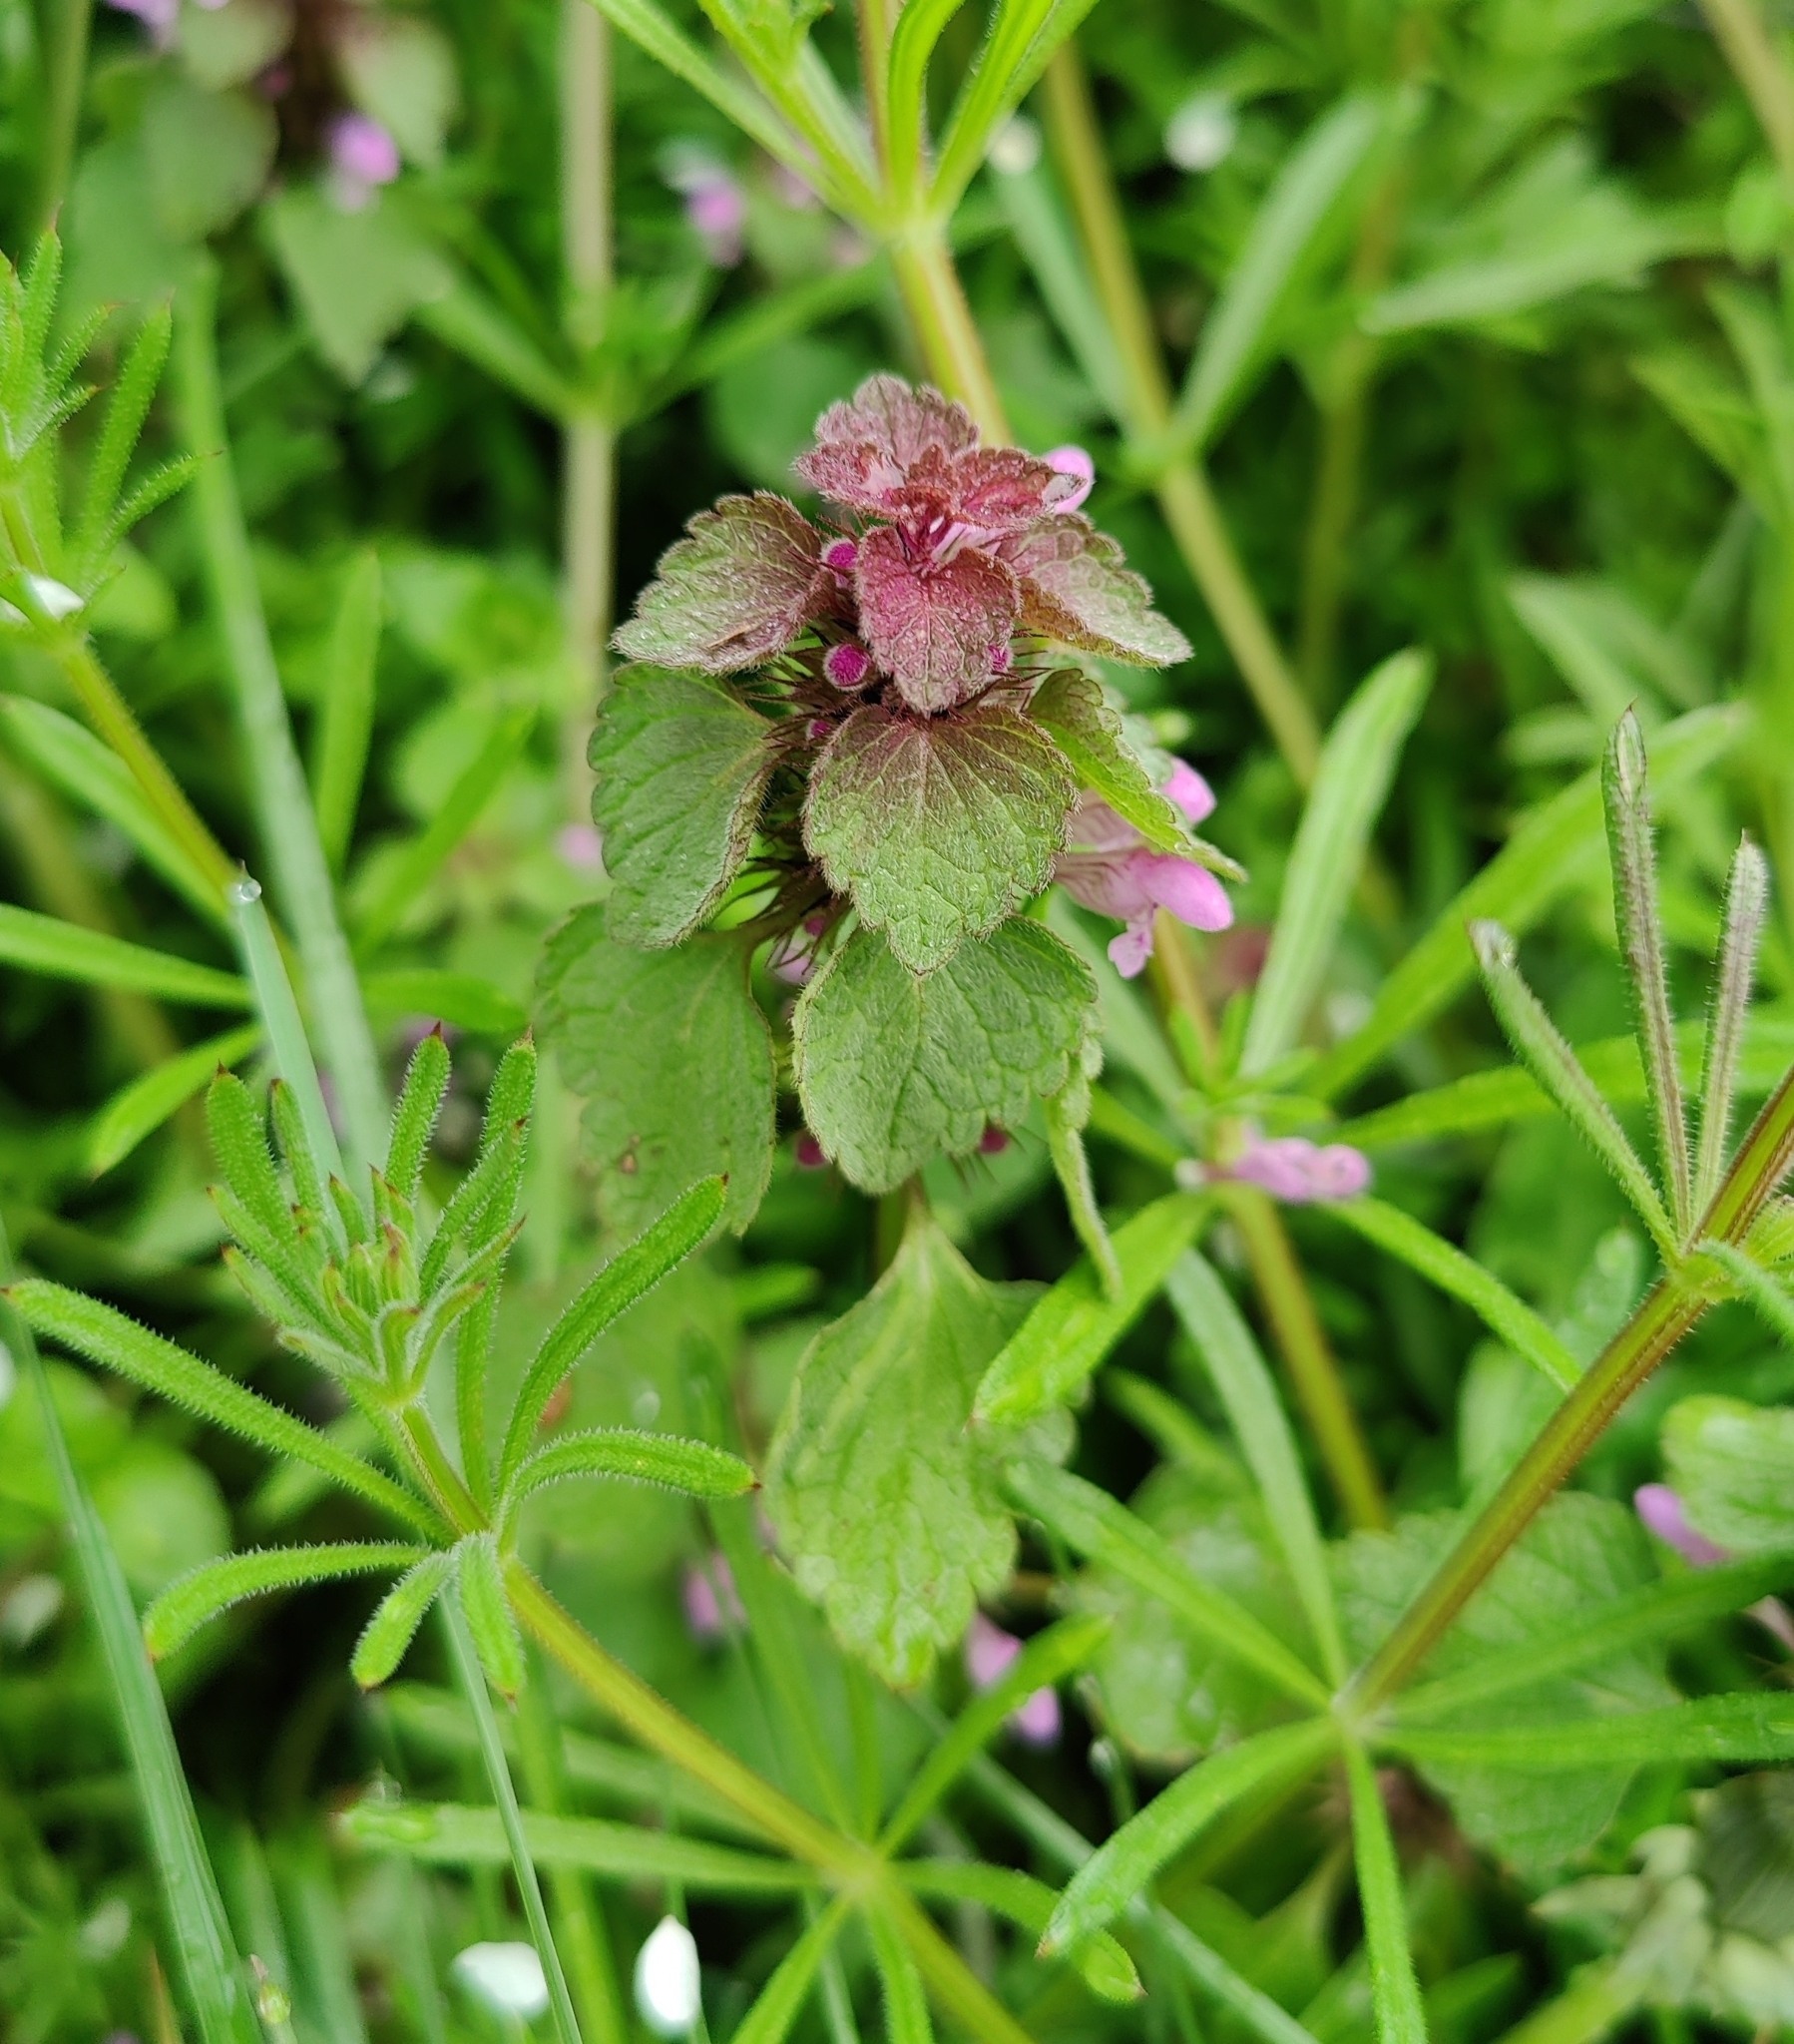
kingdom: Plantae
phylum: Tracheophyta
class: Magnoliopsida
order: Lamiales
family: Lamiaceae
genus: Lamium
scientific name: Lamium purpureum
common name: Red dead-nettle
